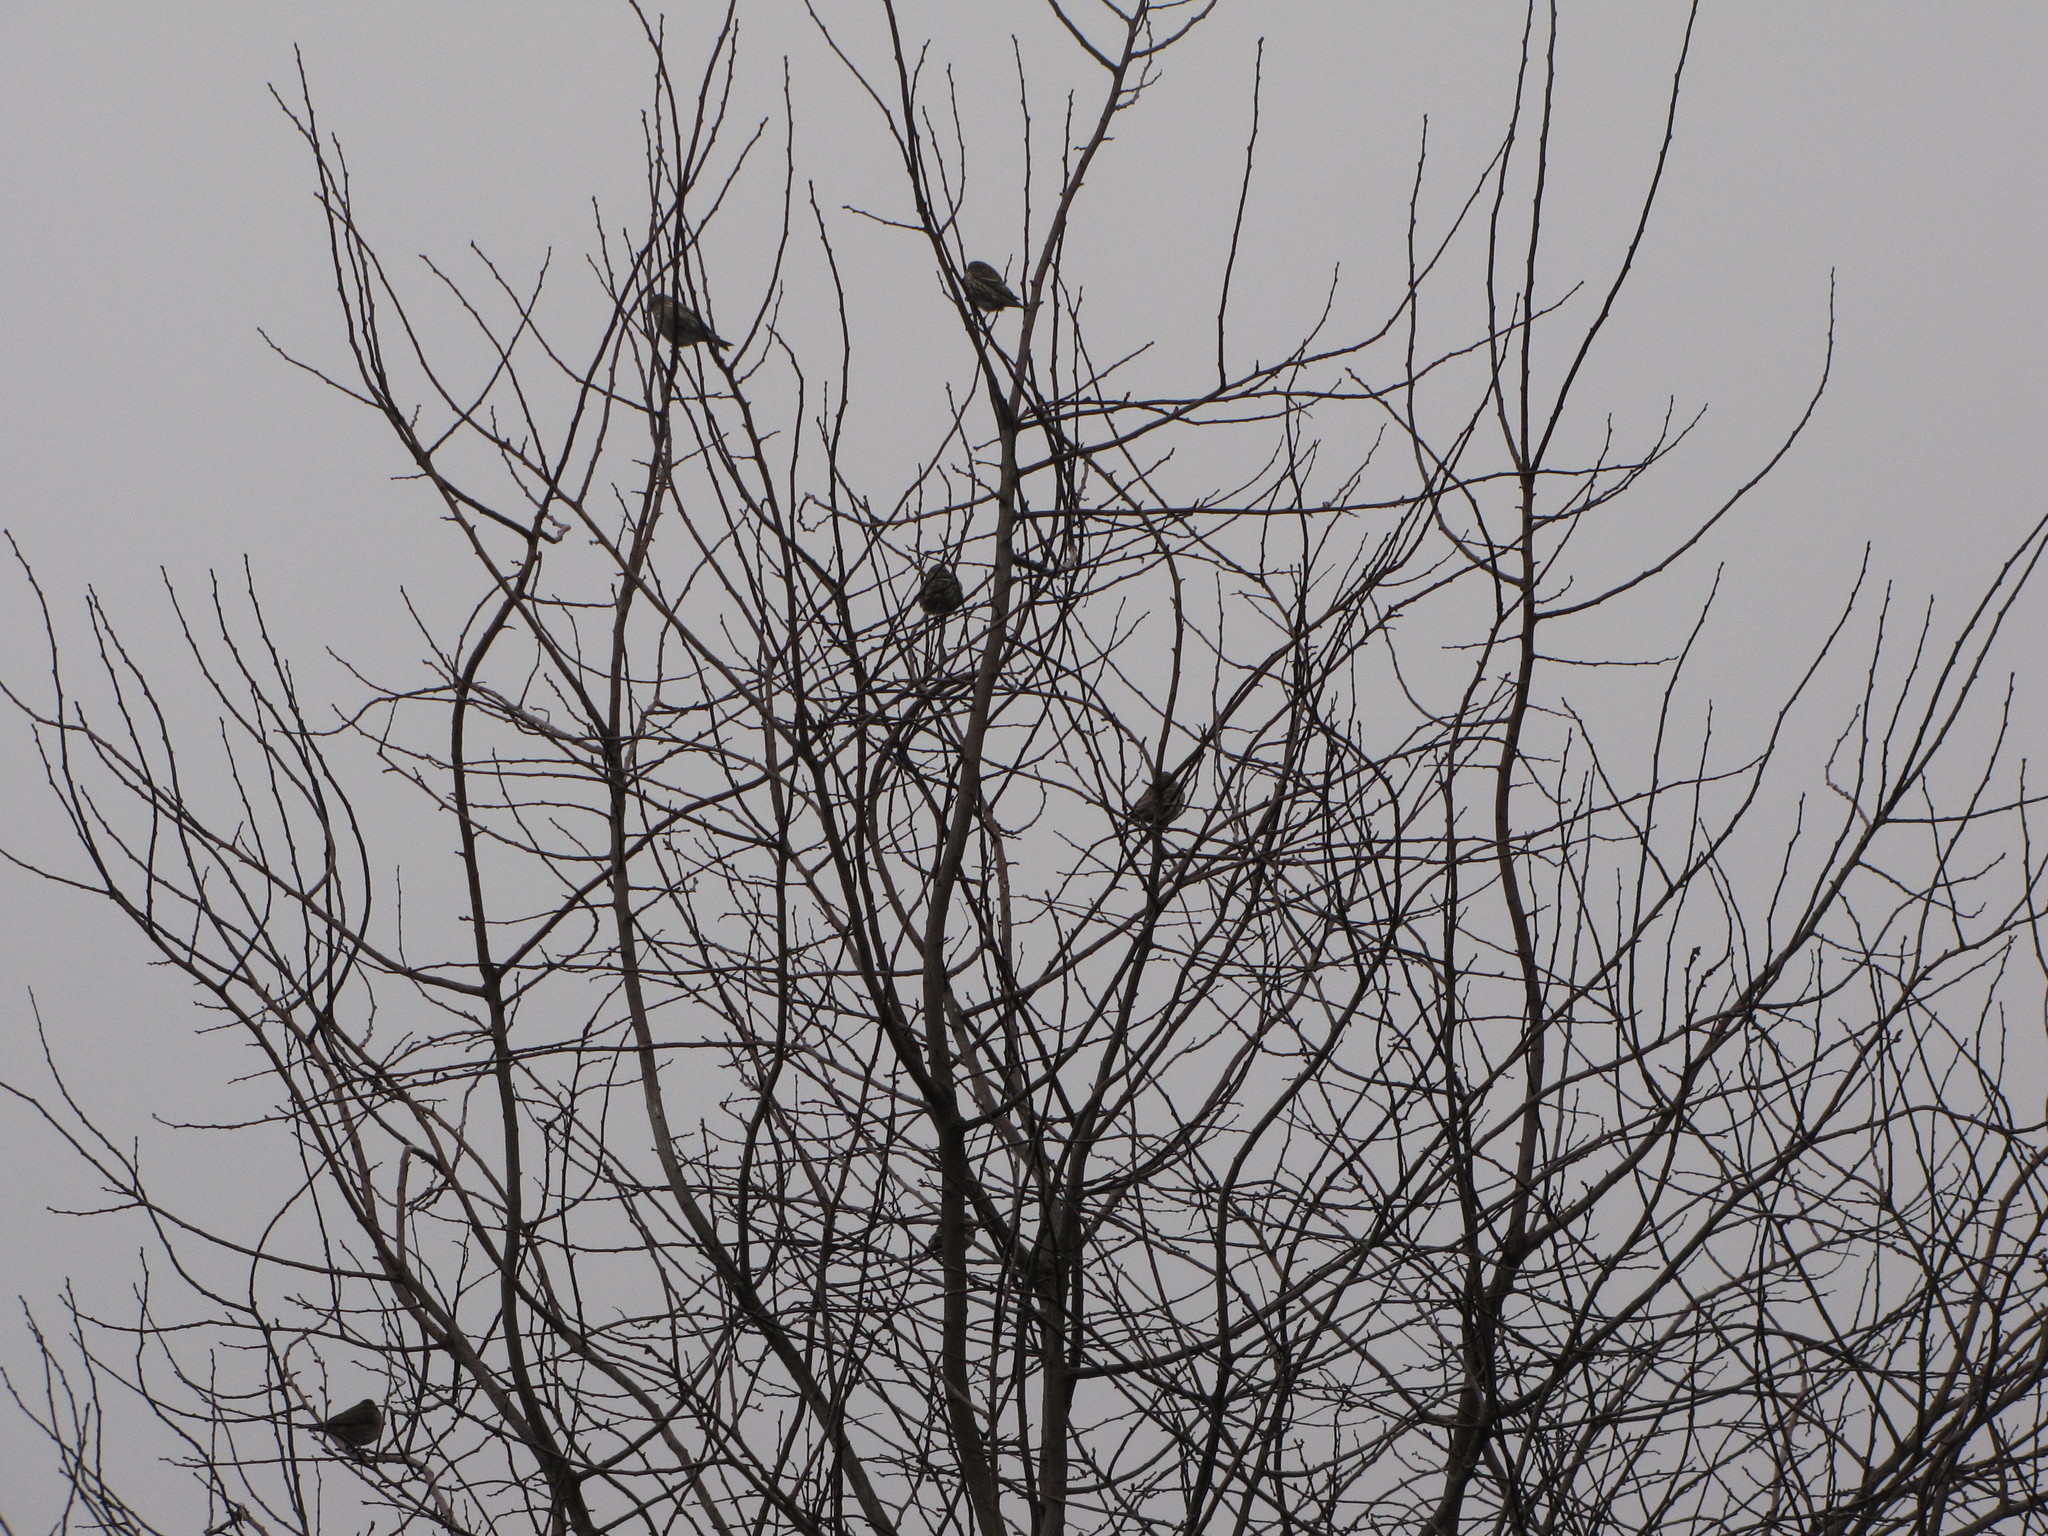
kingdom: Animalia
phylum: Chordata
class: Aves
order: Passeriformes
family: Fringillidae
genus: Spinus
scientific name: Spinus pinus
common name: Pine siskin
